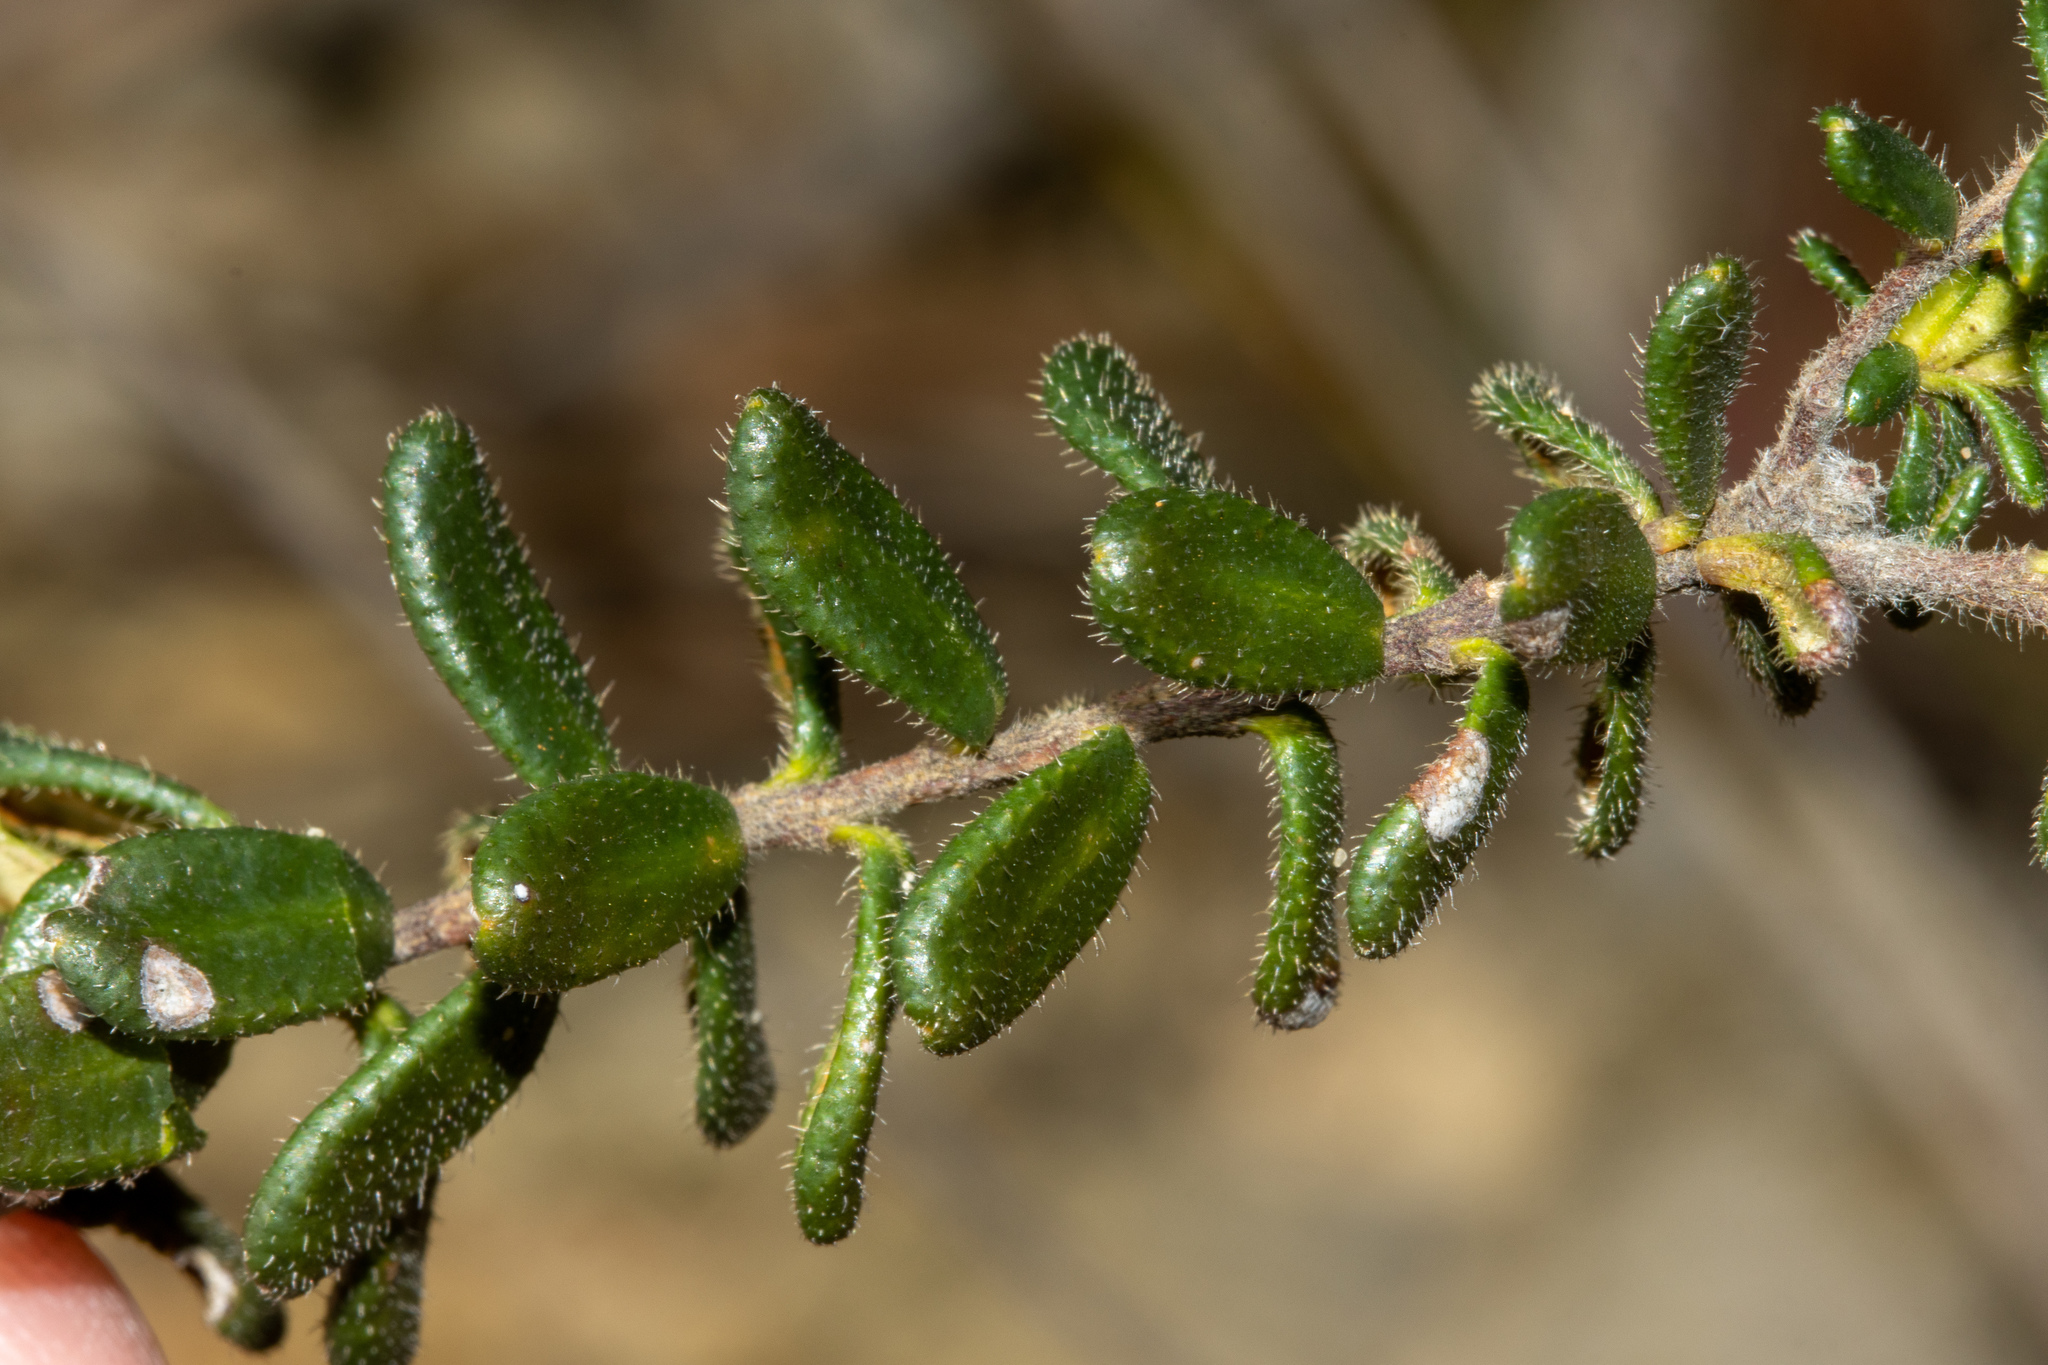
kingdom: Plantae
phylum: Tracheophyta
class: Magnoliopsida
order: Dilleniales
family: Dilleniaceae
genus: Hibbertia
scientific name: Hibbertia sericea
